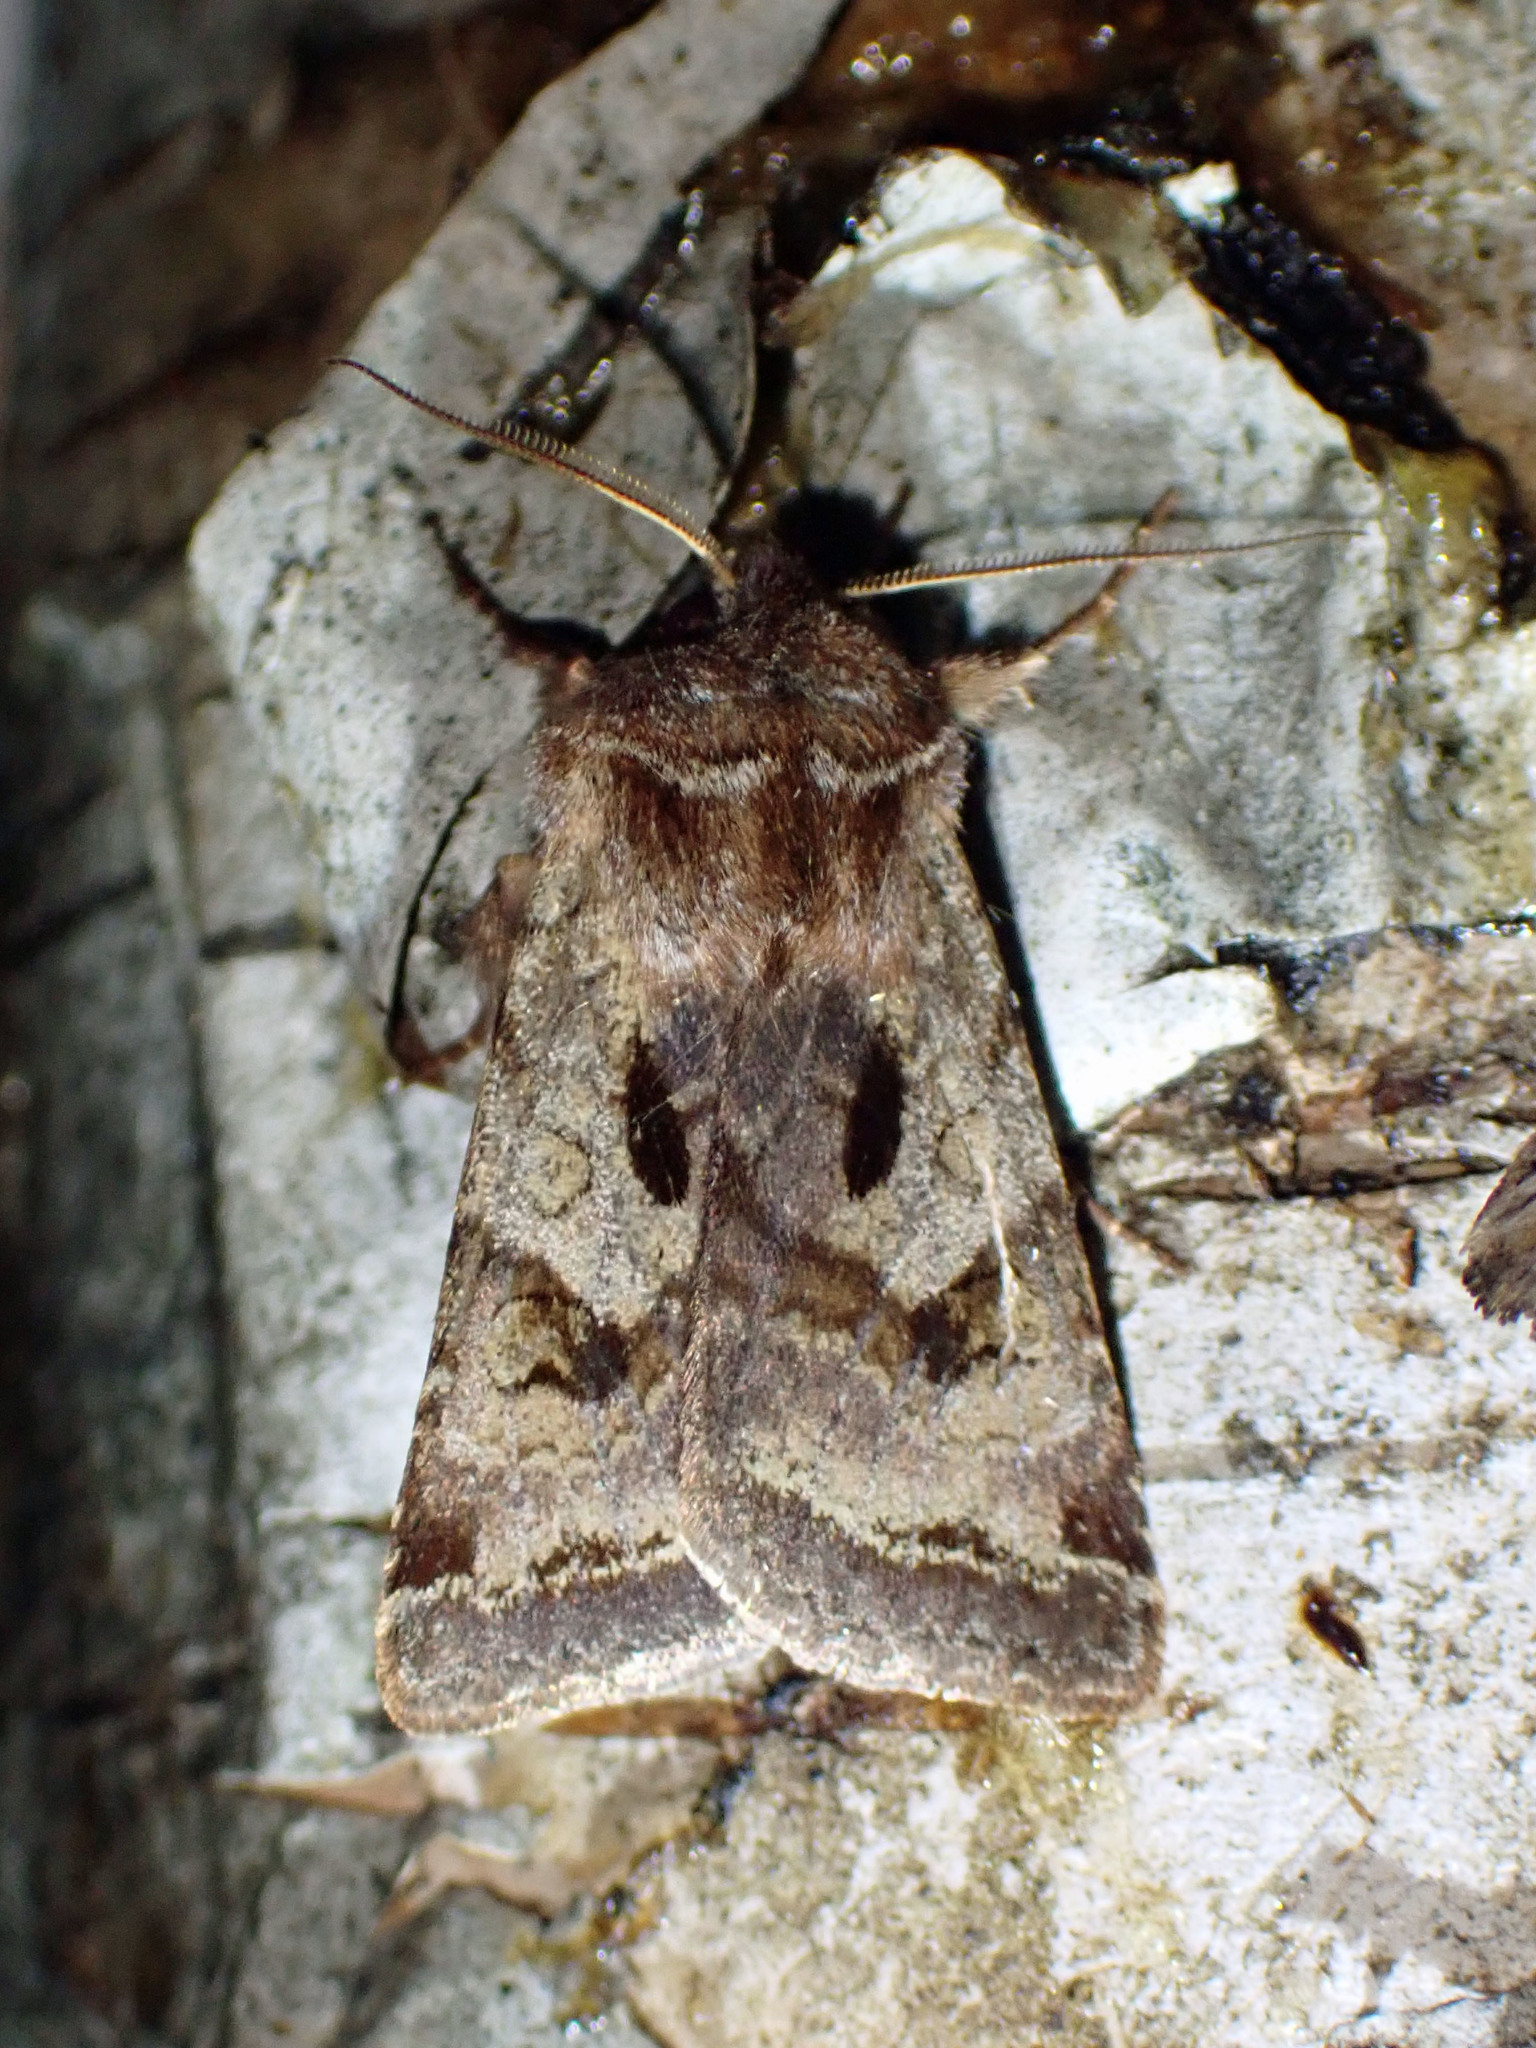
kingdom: Animalia
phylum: Arthropoda
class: Insecta
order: Lepidoptera
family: Noctuidae
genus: Cerastis
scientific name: Cerastis salicarum
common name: Willow dart
